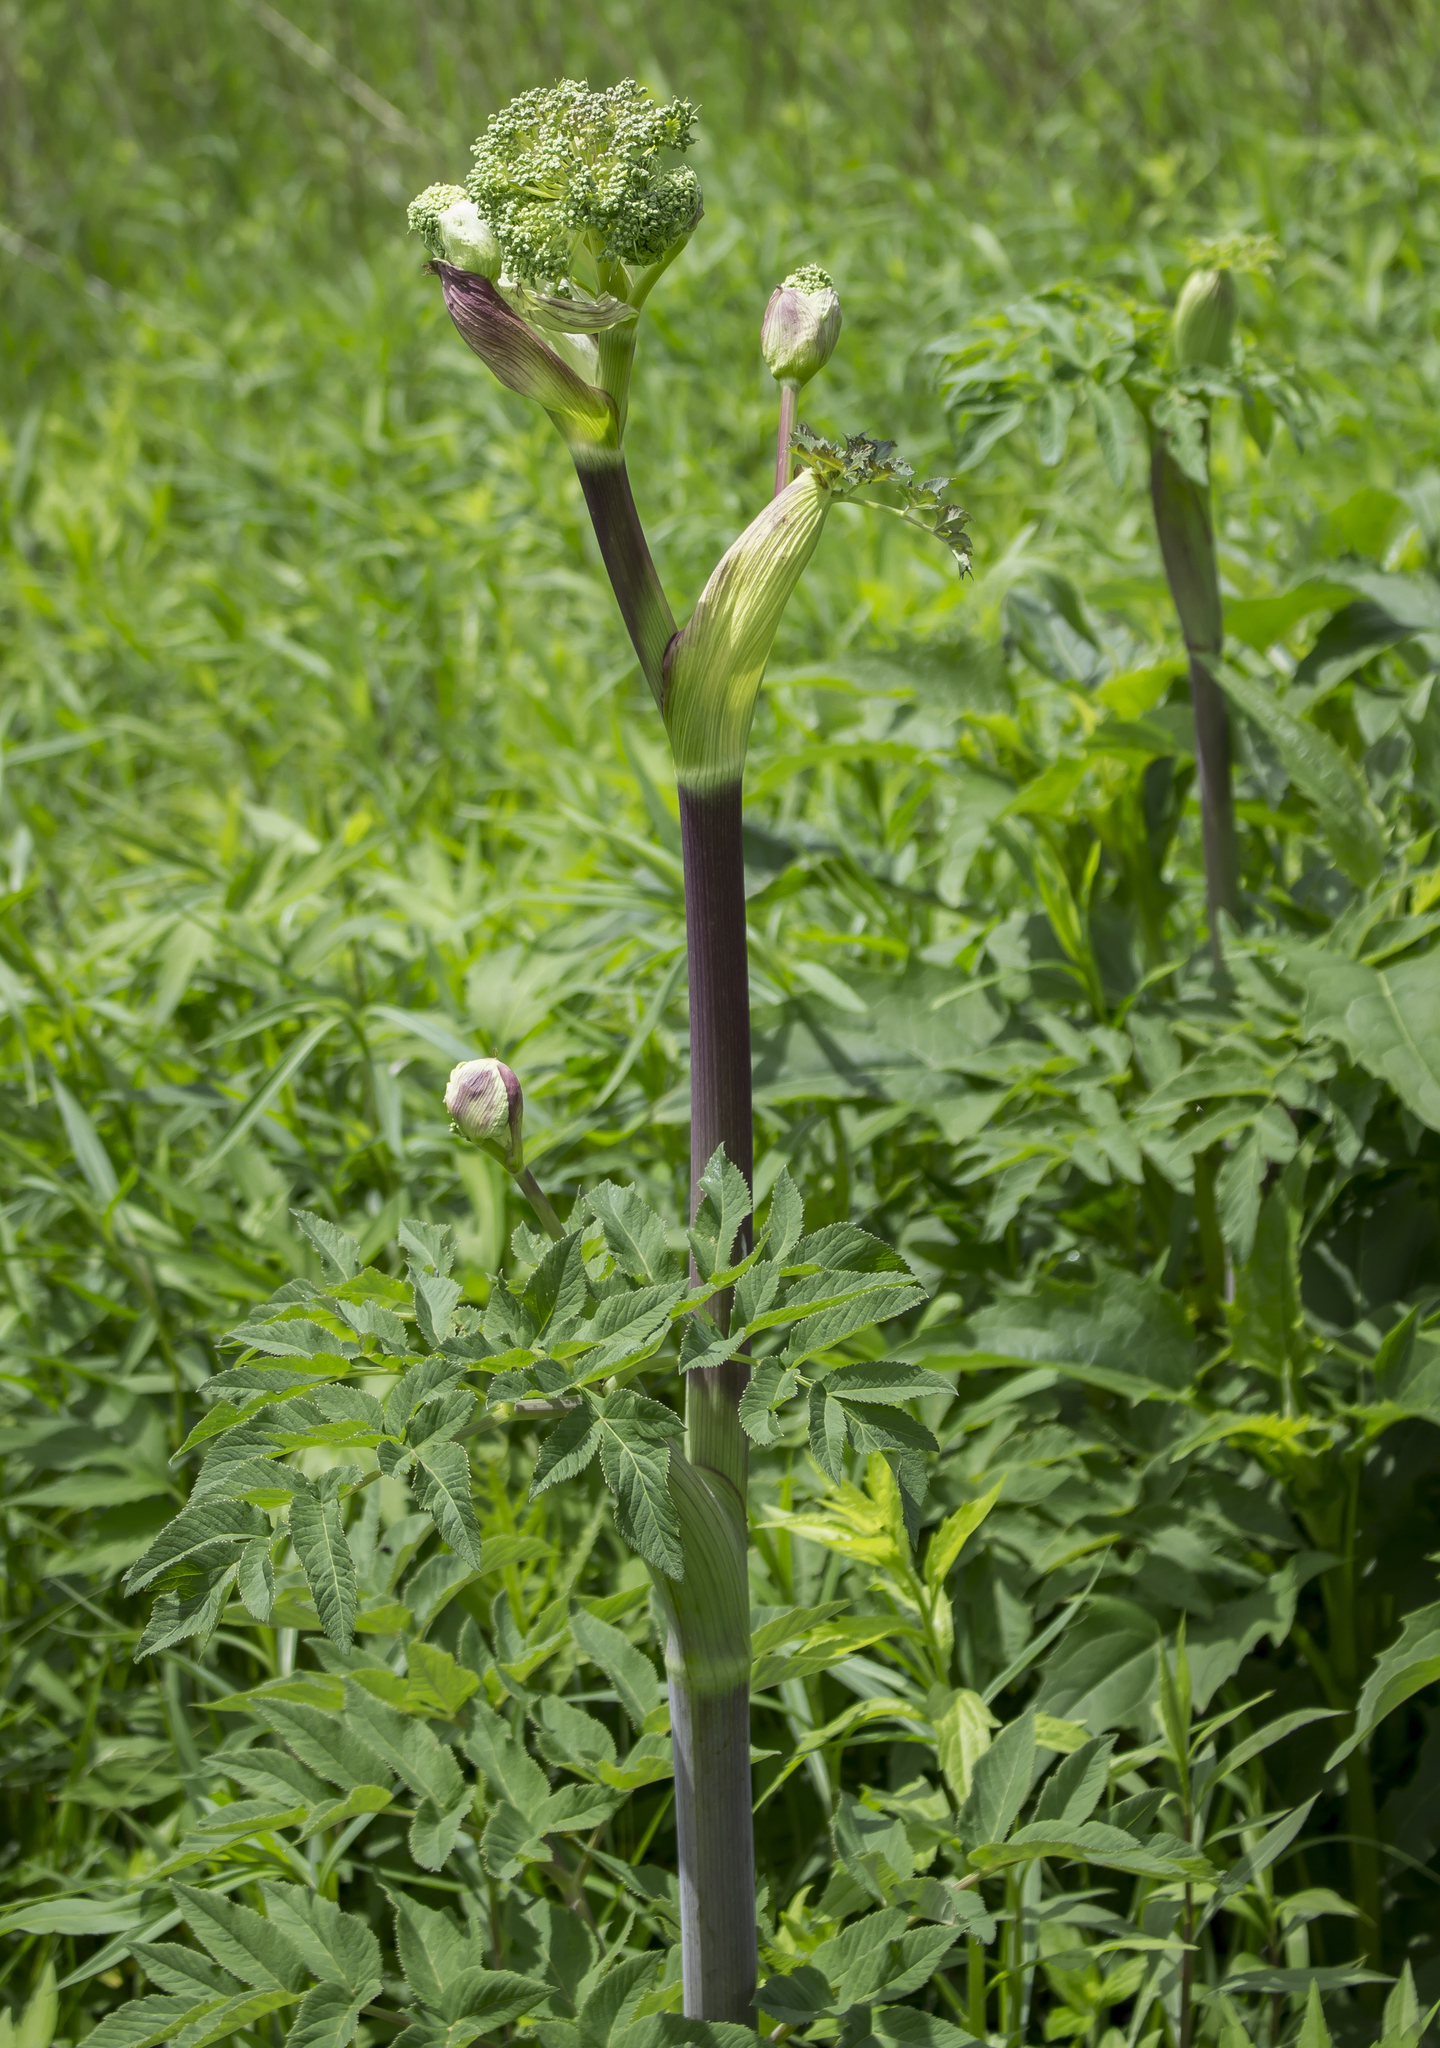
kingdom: Plantae
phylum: Tracheophyta
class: Magnoliopsida
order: Apiales
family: Apiaceae
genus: Angelica
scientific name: Angelica atropurpurea
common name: Great angelica
